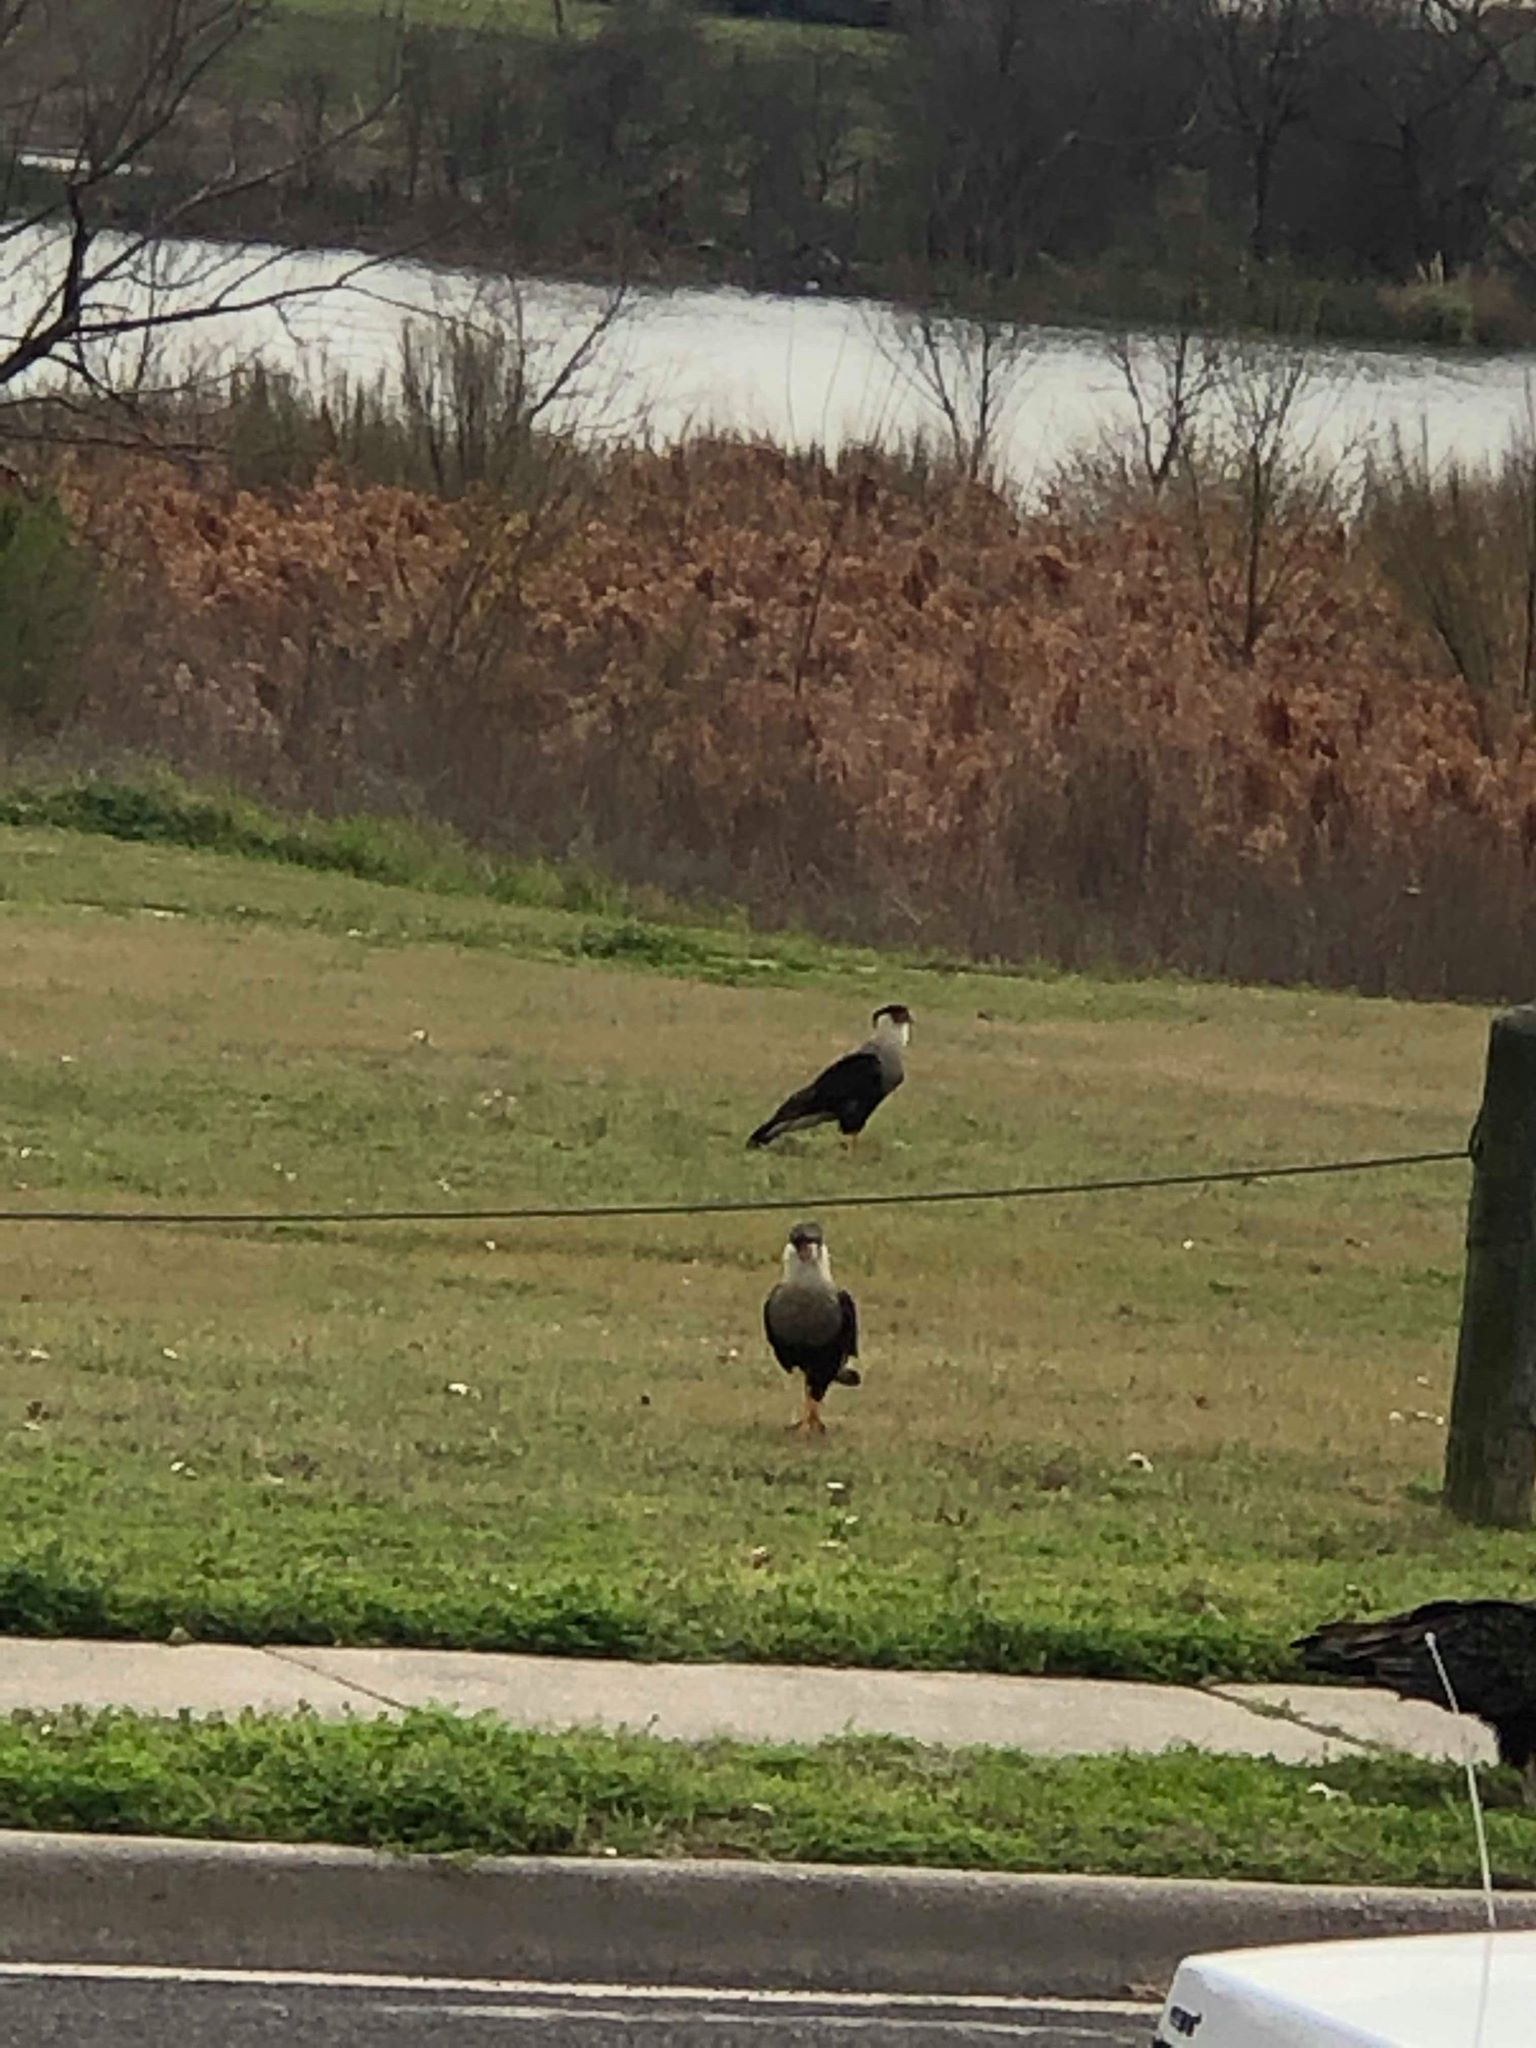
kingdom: Animalia
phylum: Chordata
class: Aves
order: Falconiformes
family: Falconidae
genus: Caracara
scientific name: Caracara plancus
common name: Southern caracara
